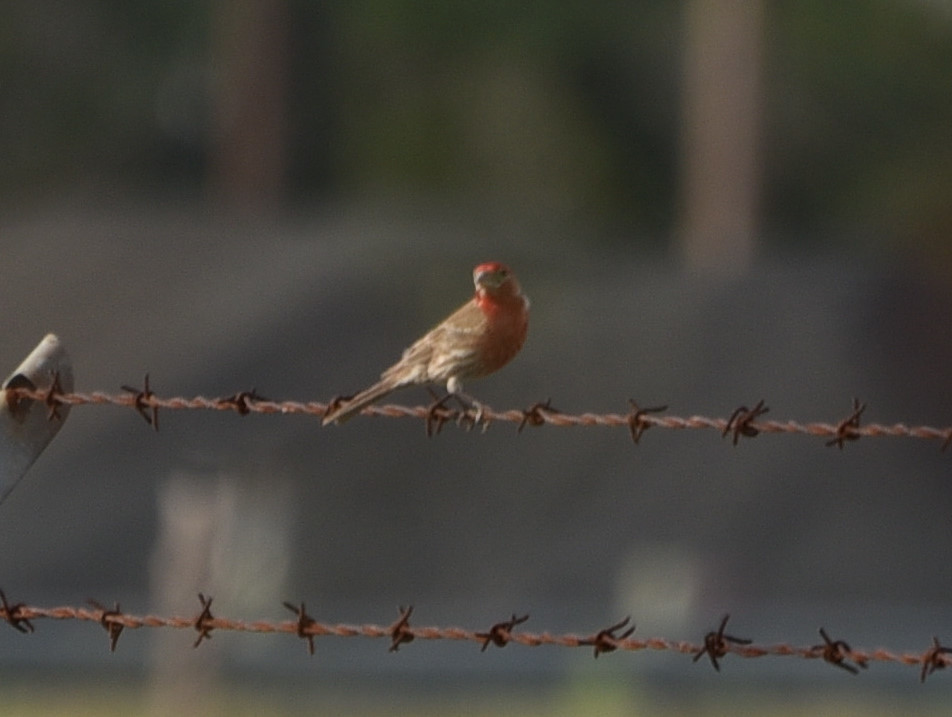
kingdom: Animalia
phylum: Chordata
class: Aves
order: Passeriformes
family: Fringillidae
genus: Haemorhous
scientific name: Haemorhous mexicanus
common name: House finch
